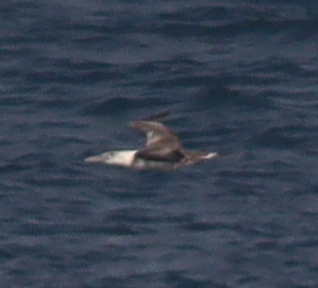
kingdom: Animalia
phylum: Chordata
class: Aves
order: Suliformes
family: Sulidae
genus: Morus
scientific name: Morus bassanus
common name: Northern gannet
